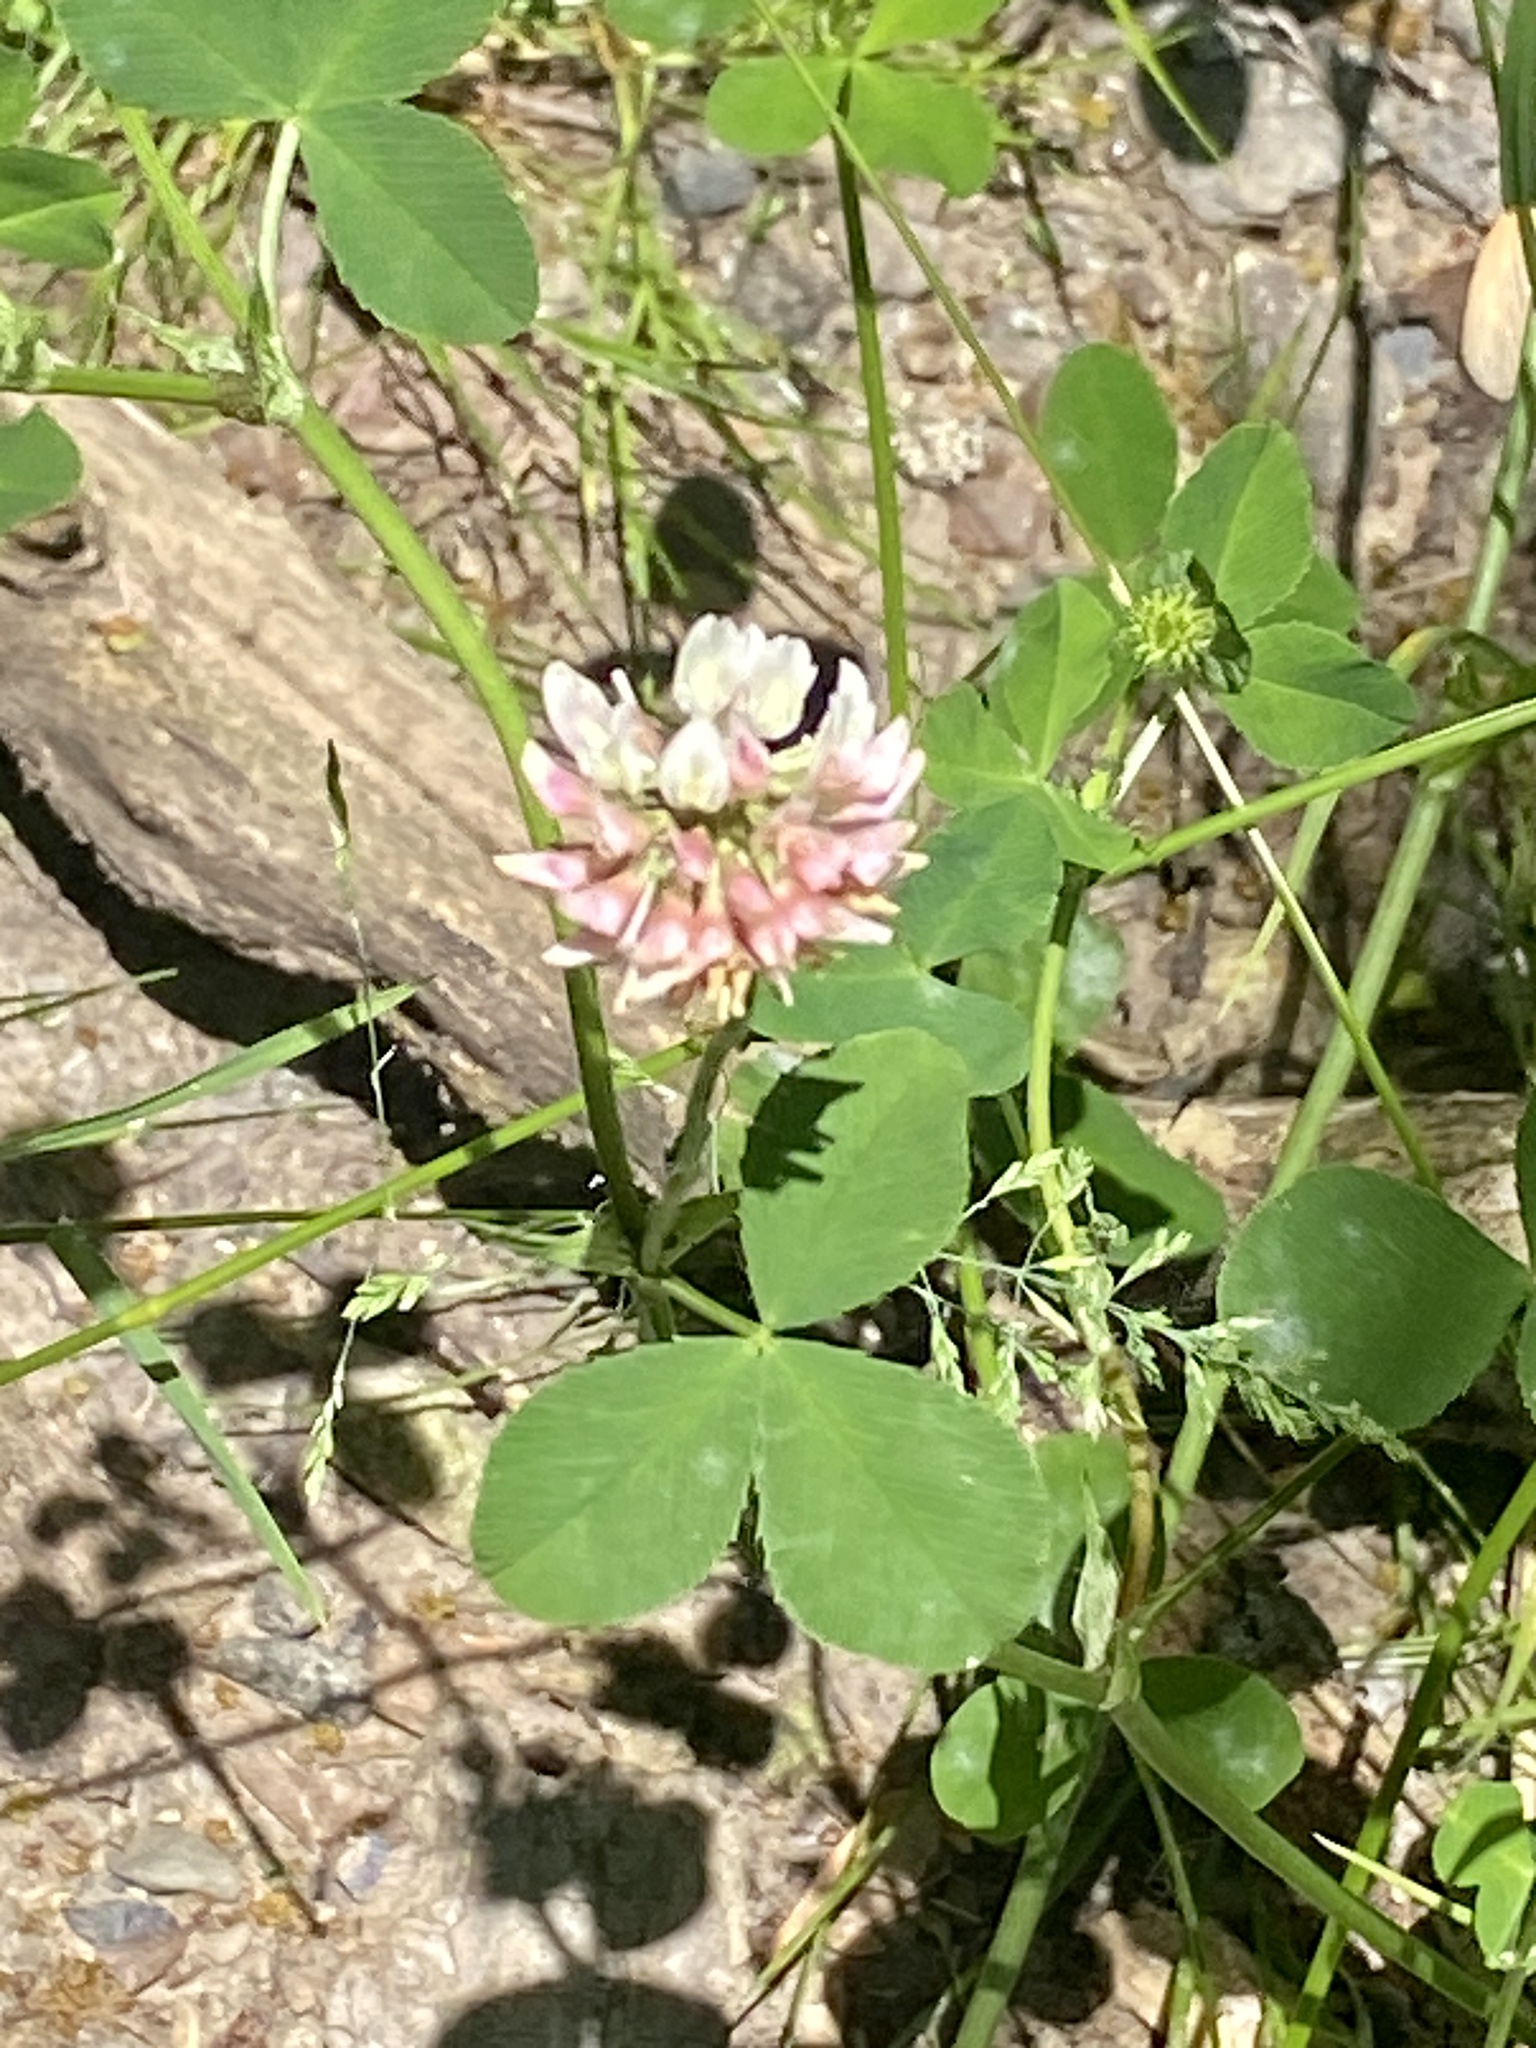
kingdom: Plantae
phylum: Tracheophyta
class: Magnoliopsida
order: Fabales
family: Fabaceae
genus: Trifolium
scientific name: Trifolium hybridum
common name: Alsike clover
